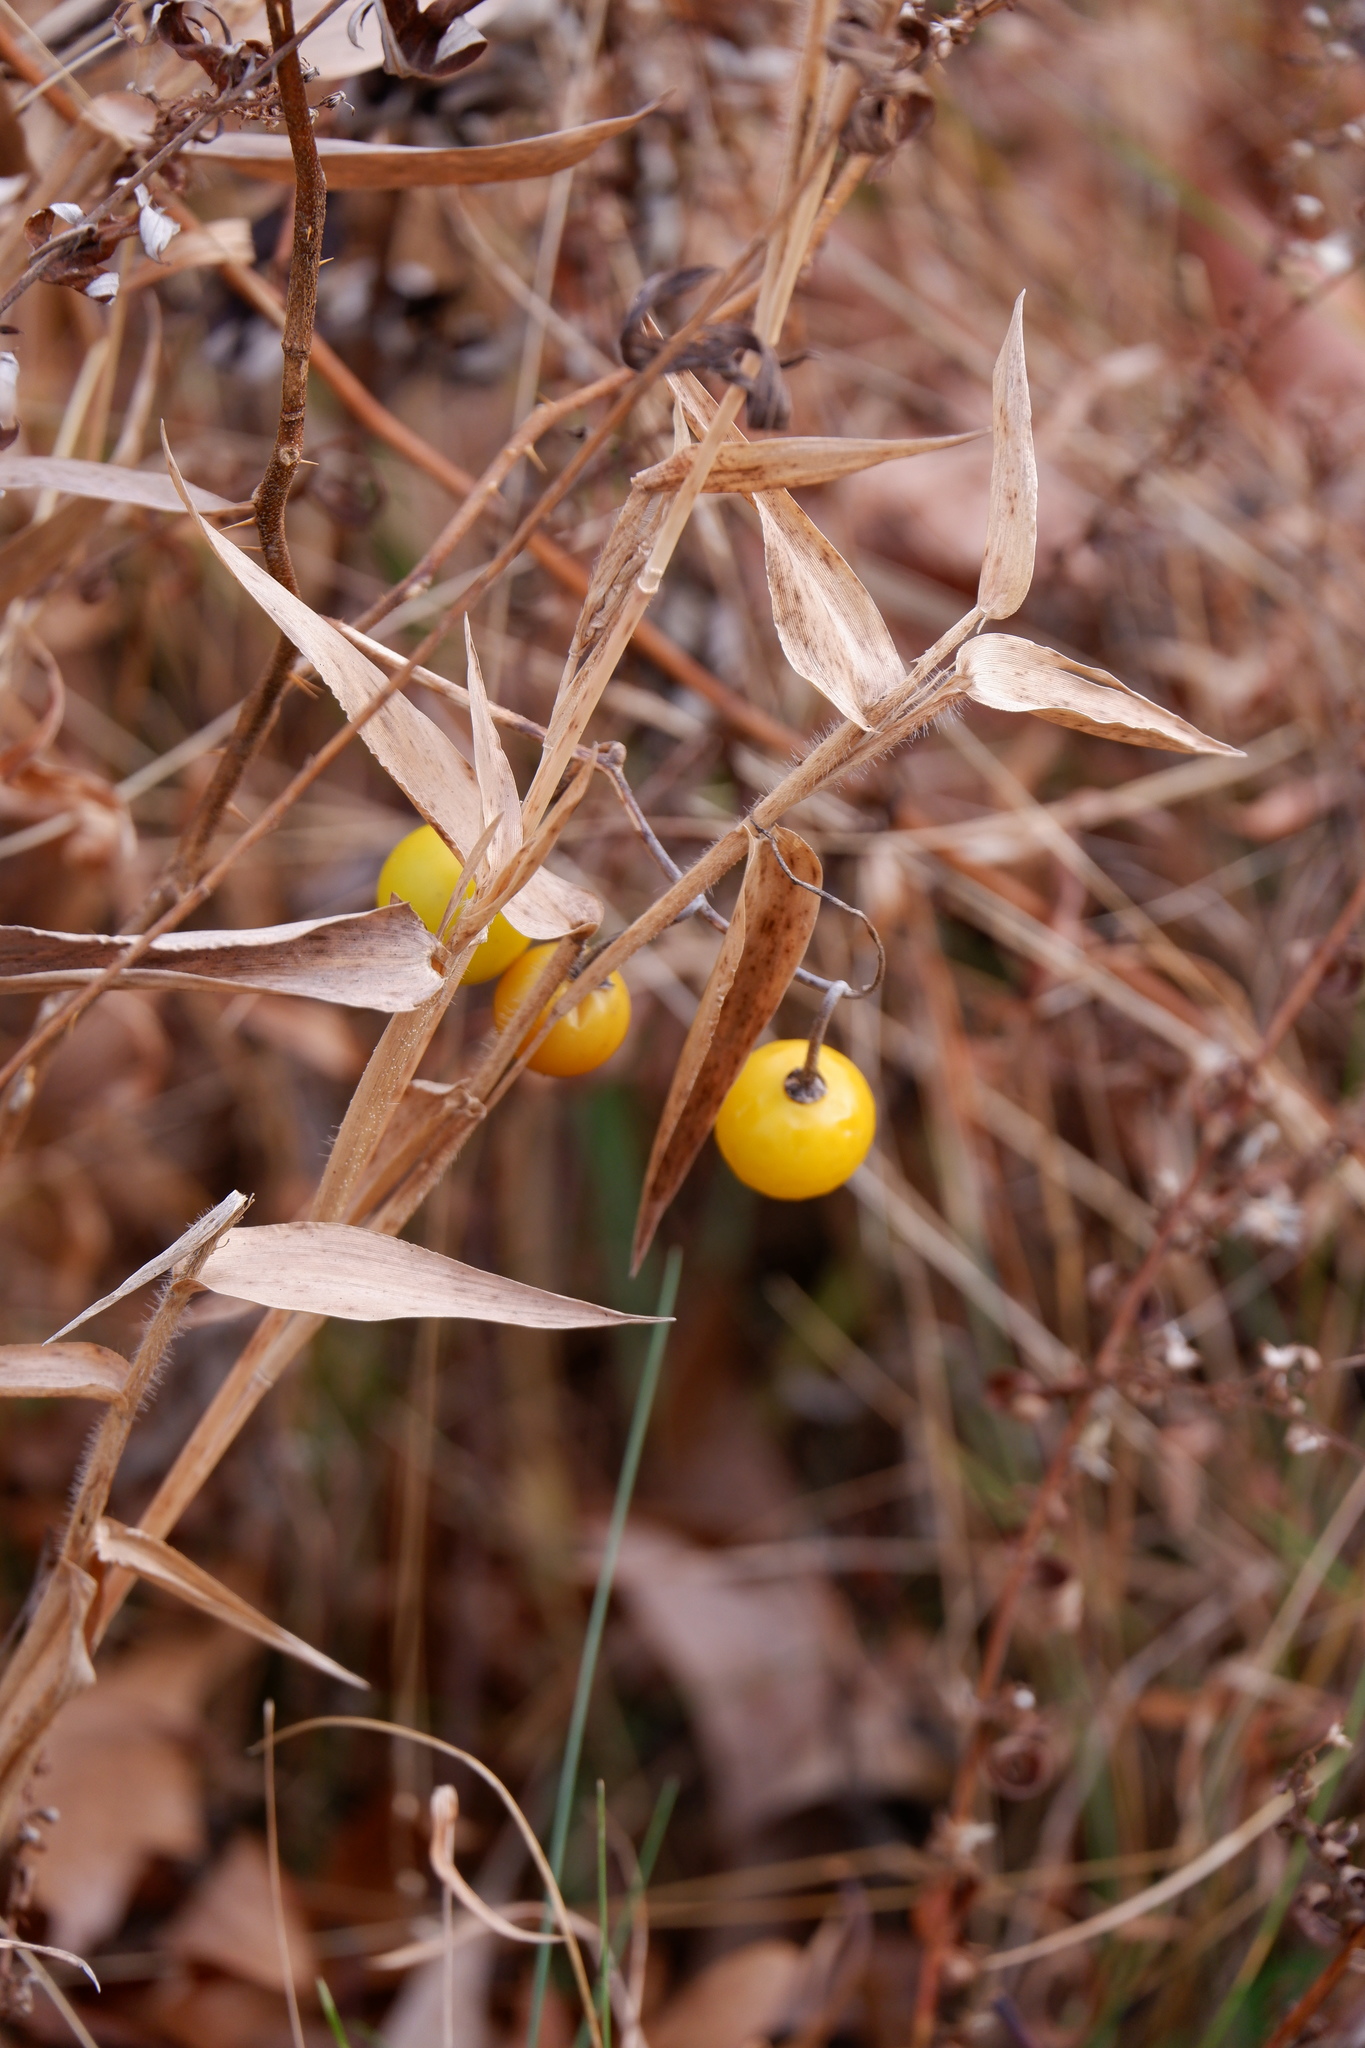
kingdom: Plantae
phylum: Tracheophyta
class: Magnoliopsida
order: Solanales
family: Solanaceae
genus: Solanum
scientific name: Solanum carolinense
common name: Horse-nettle
